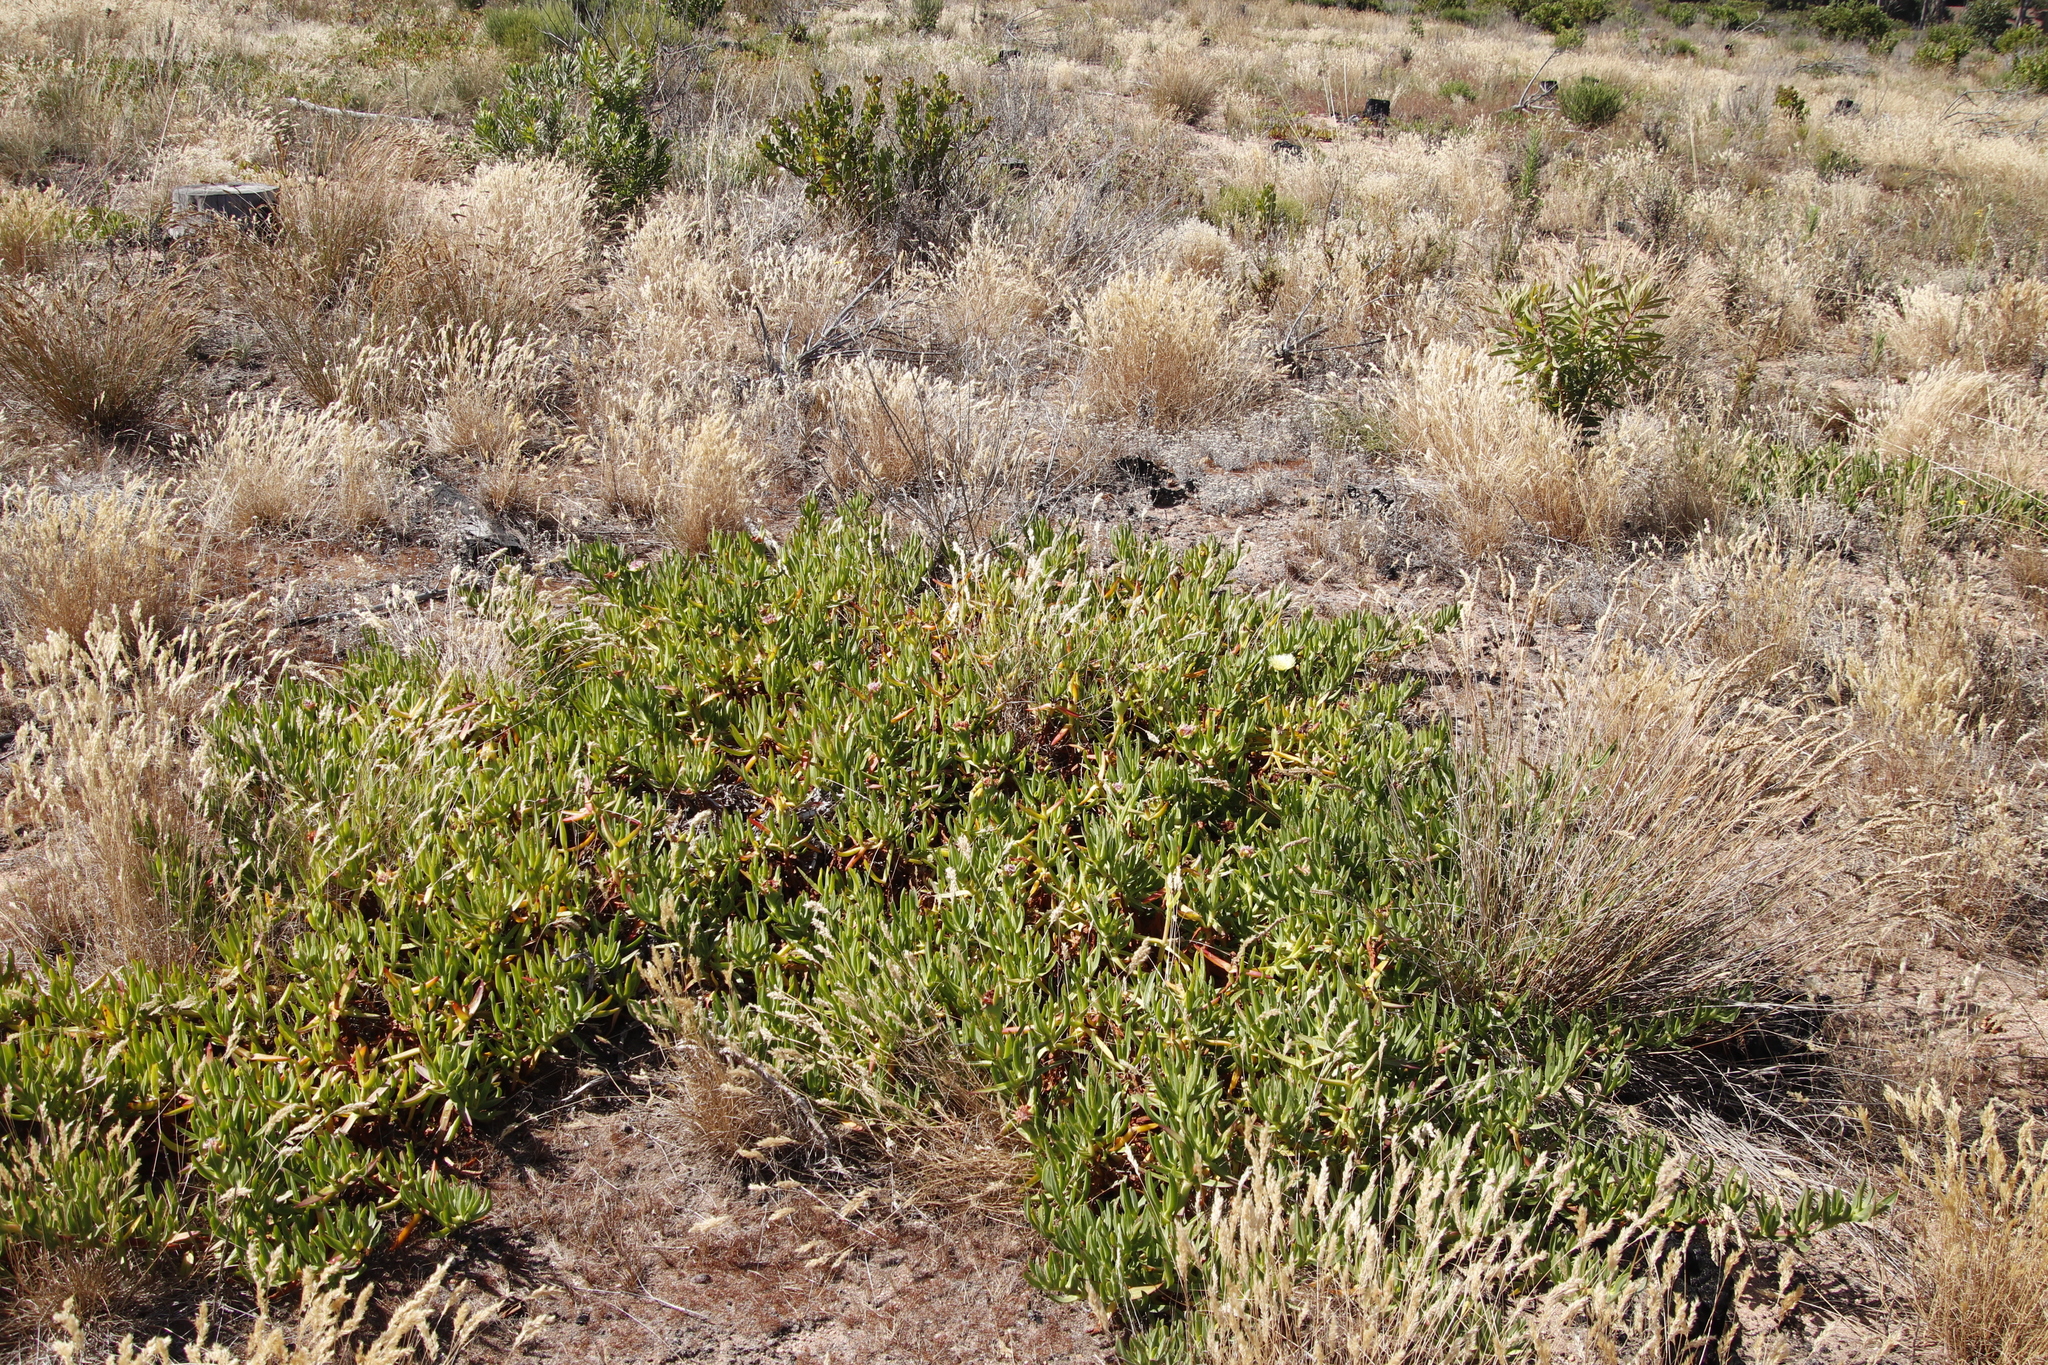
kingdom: Plantae
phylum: Tracheophyta
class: Magnoliopsida
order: Caryophyllales
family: Aizoaceae
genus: Carpobrotus
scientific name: Carpobrotus edulis
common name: Hottentot-fig
